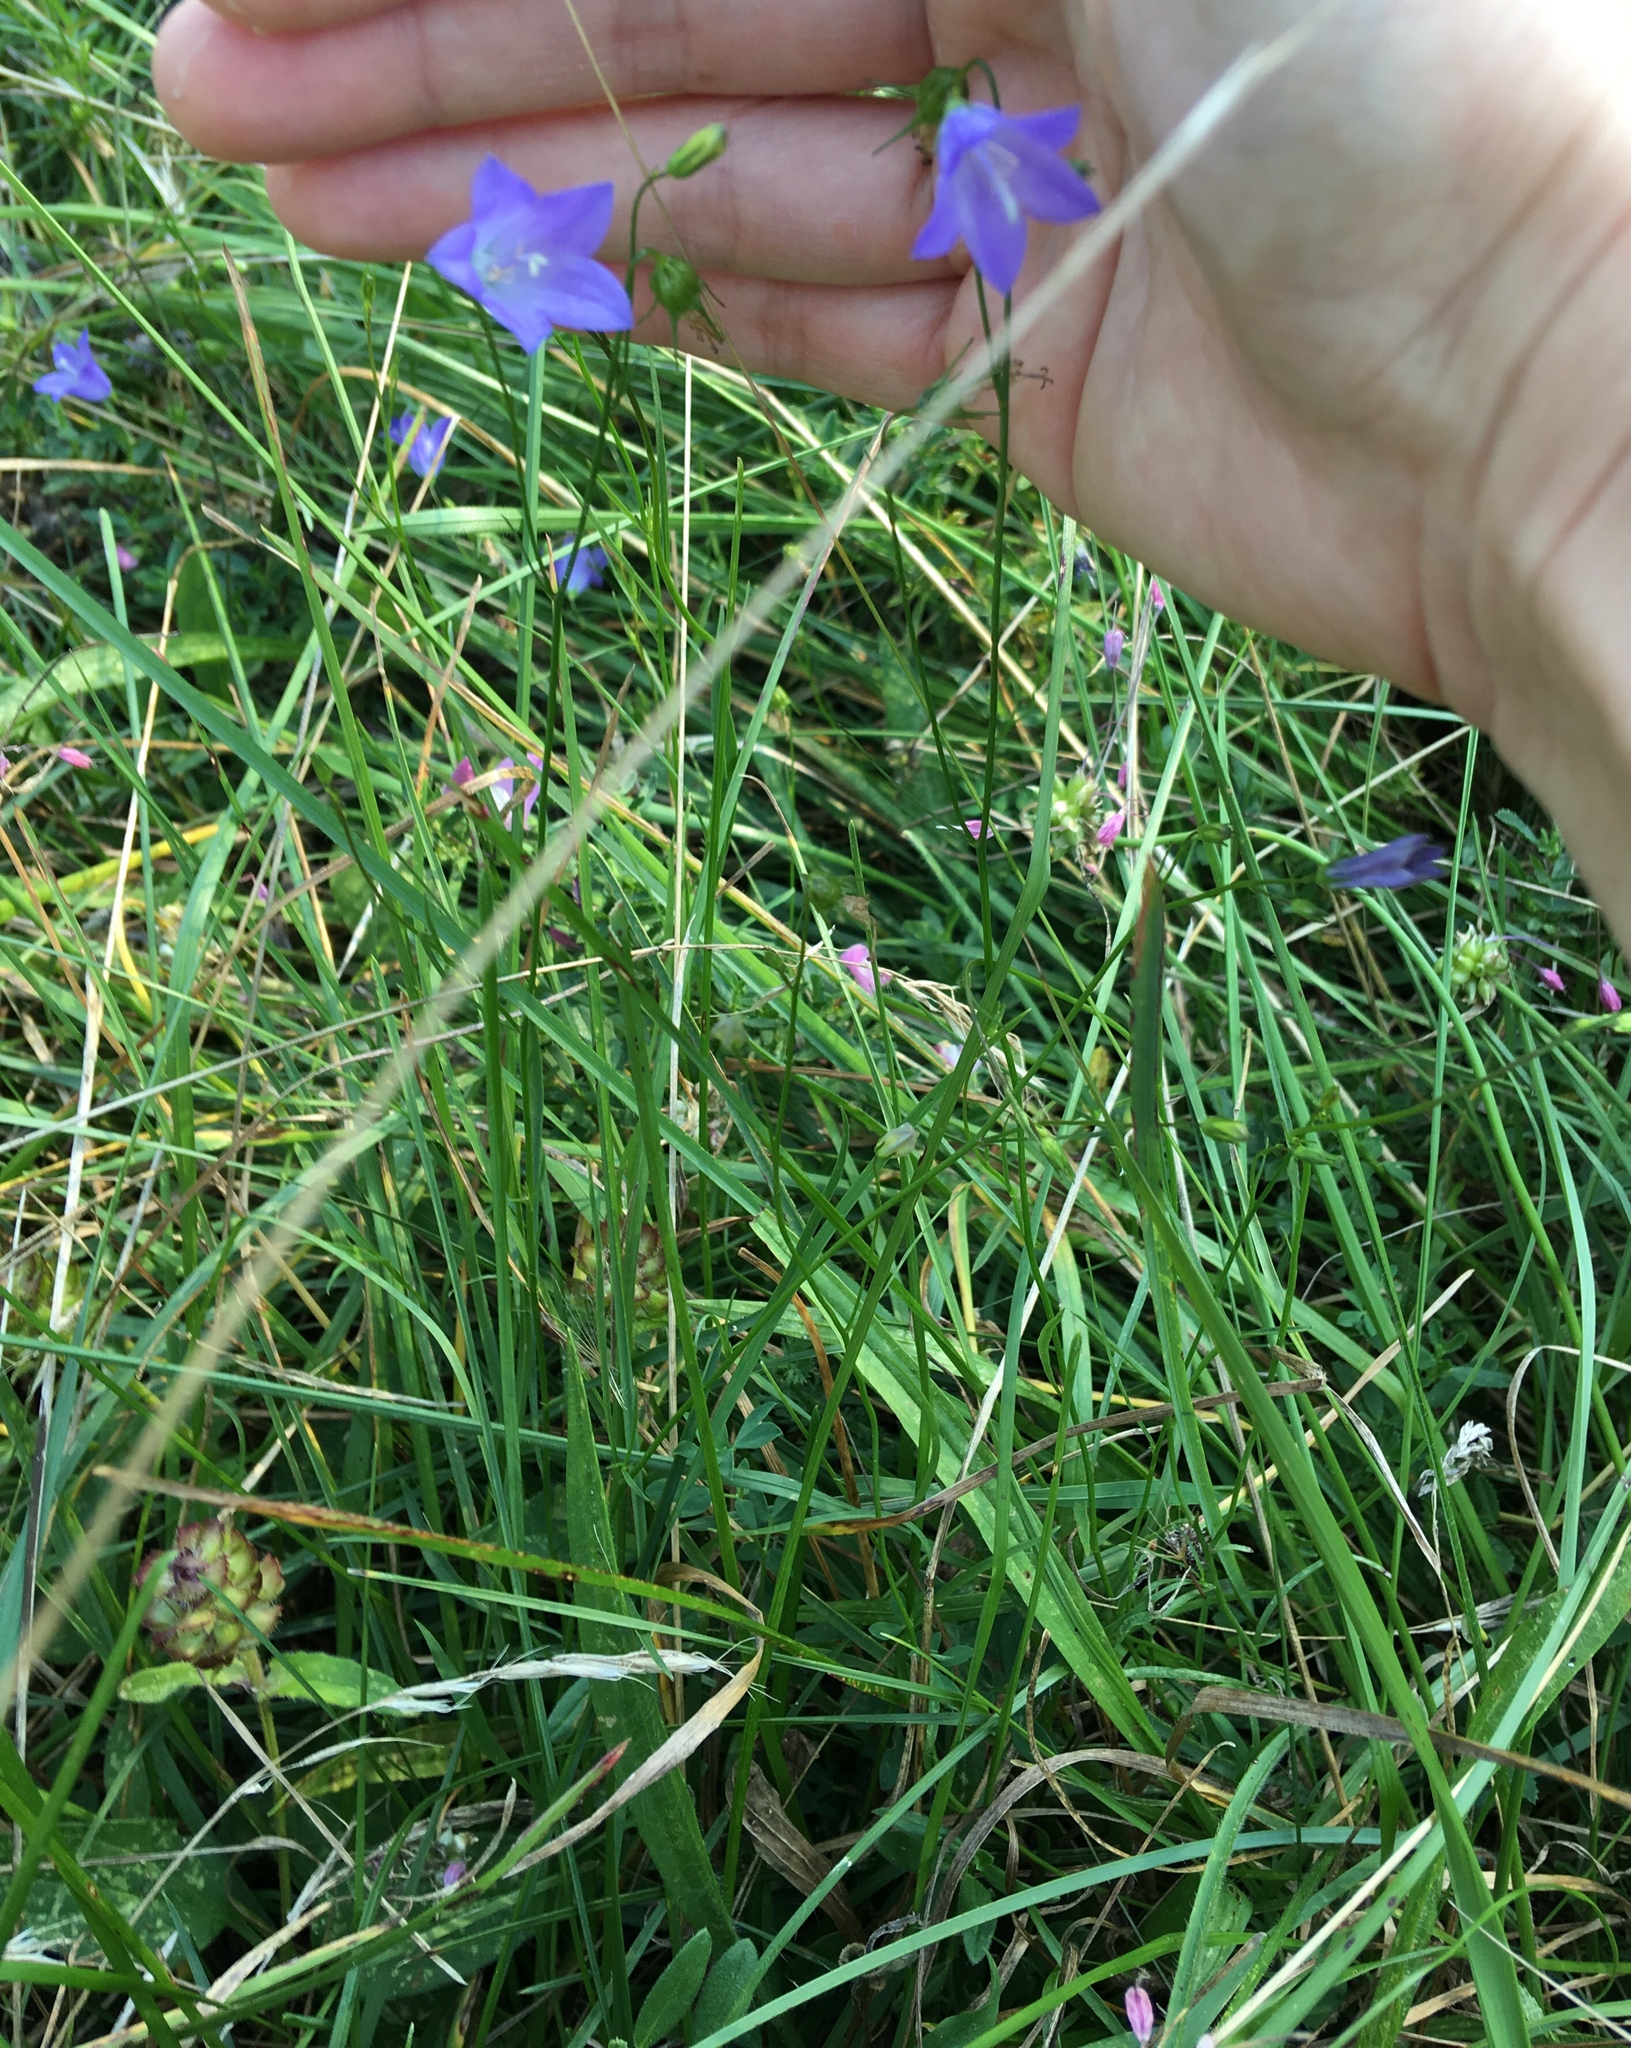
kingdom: Plantae
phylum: Tracheophyta
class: Magnoliopsida
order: Asterales
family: Campanulaceae
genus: Campanula
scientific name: Campanula rotundifolia
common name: Harebell
